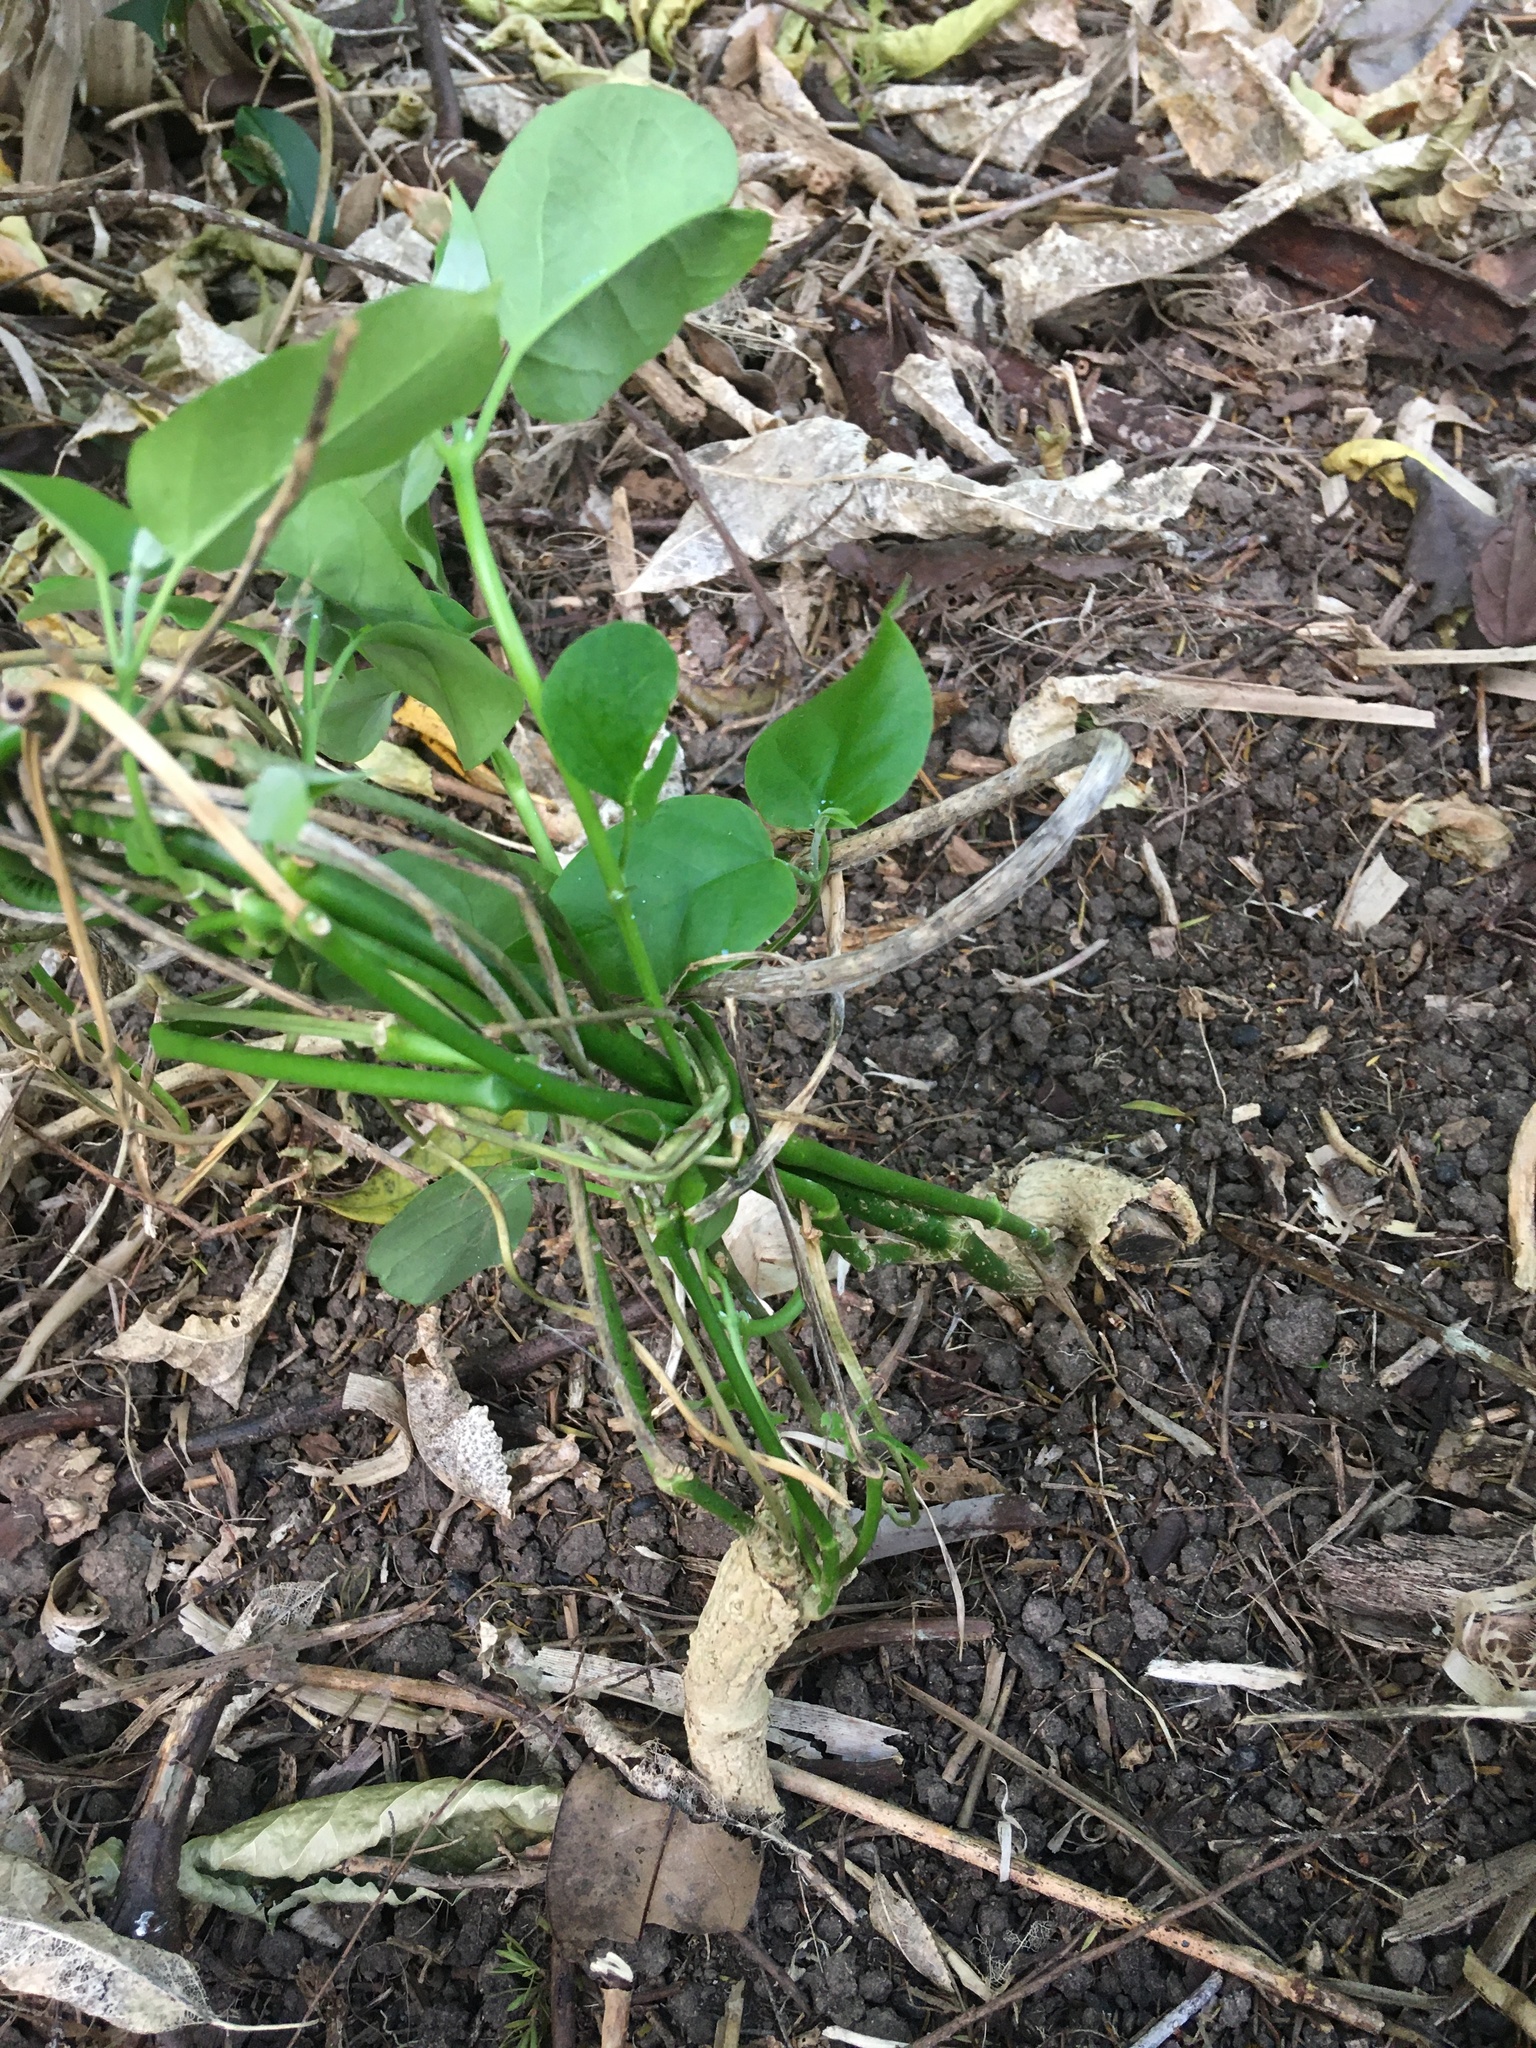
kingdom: Plantae
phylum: Tracheophyta
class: Magnoliopsida
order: Gentianales
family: Apocynaceae
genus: Araujia
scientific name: Araujia sericifera
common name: White bladderflower
